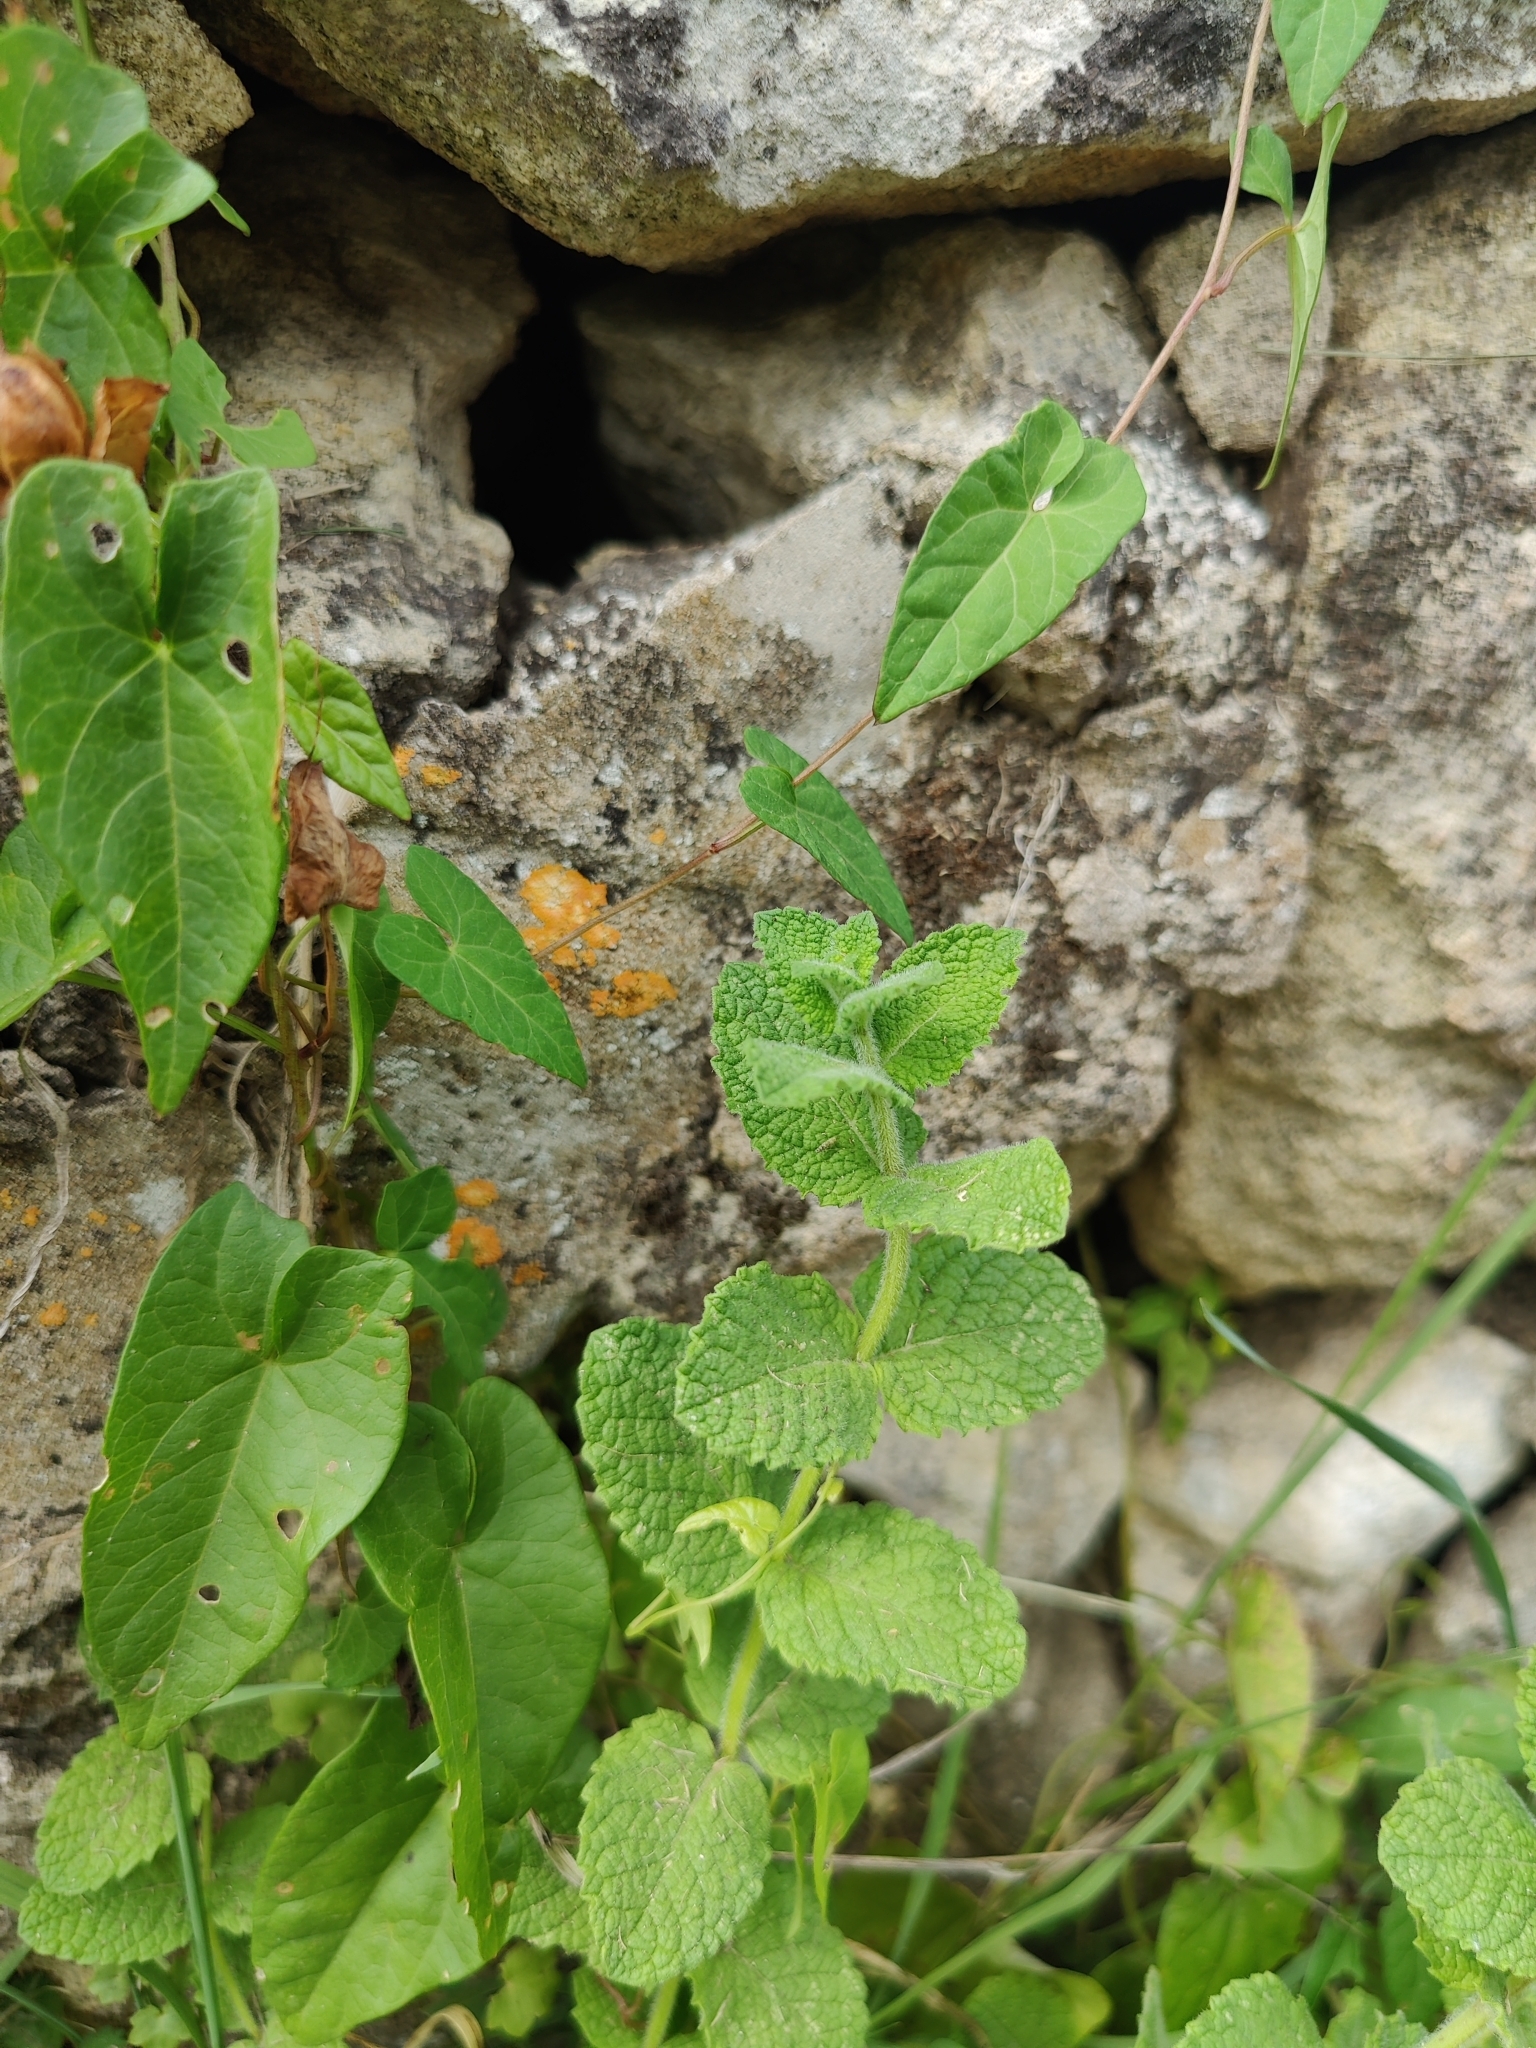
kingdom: Plantae
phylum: Tracheophyta
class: Magnoliopsida
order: Lamiales
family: Lamiaceae
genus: Mentha
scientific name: Mentha suaveolens
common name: Apple mint
